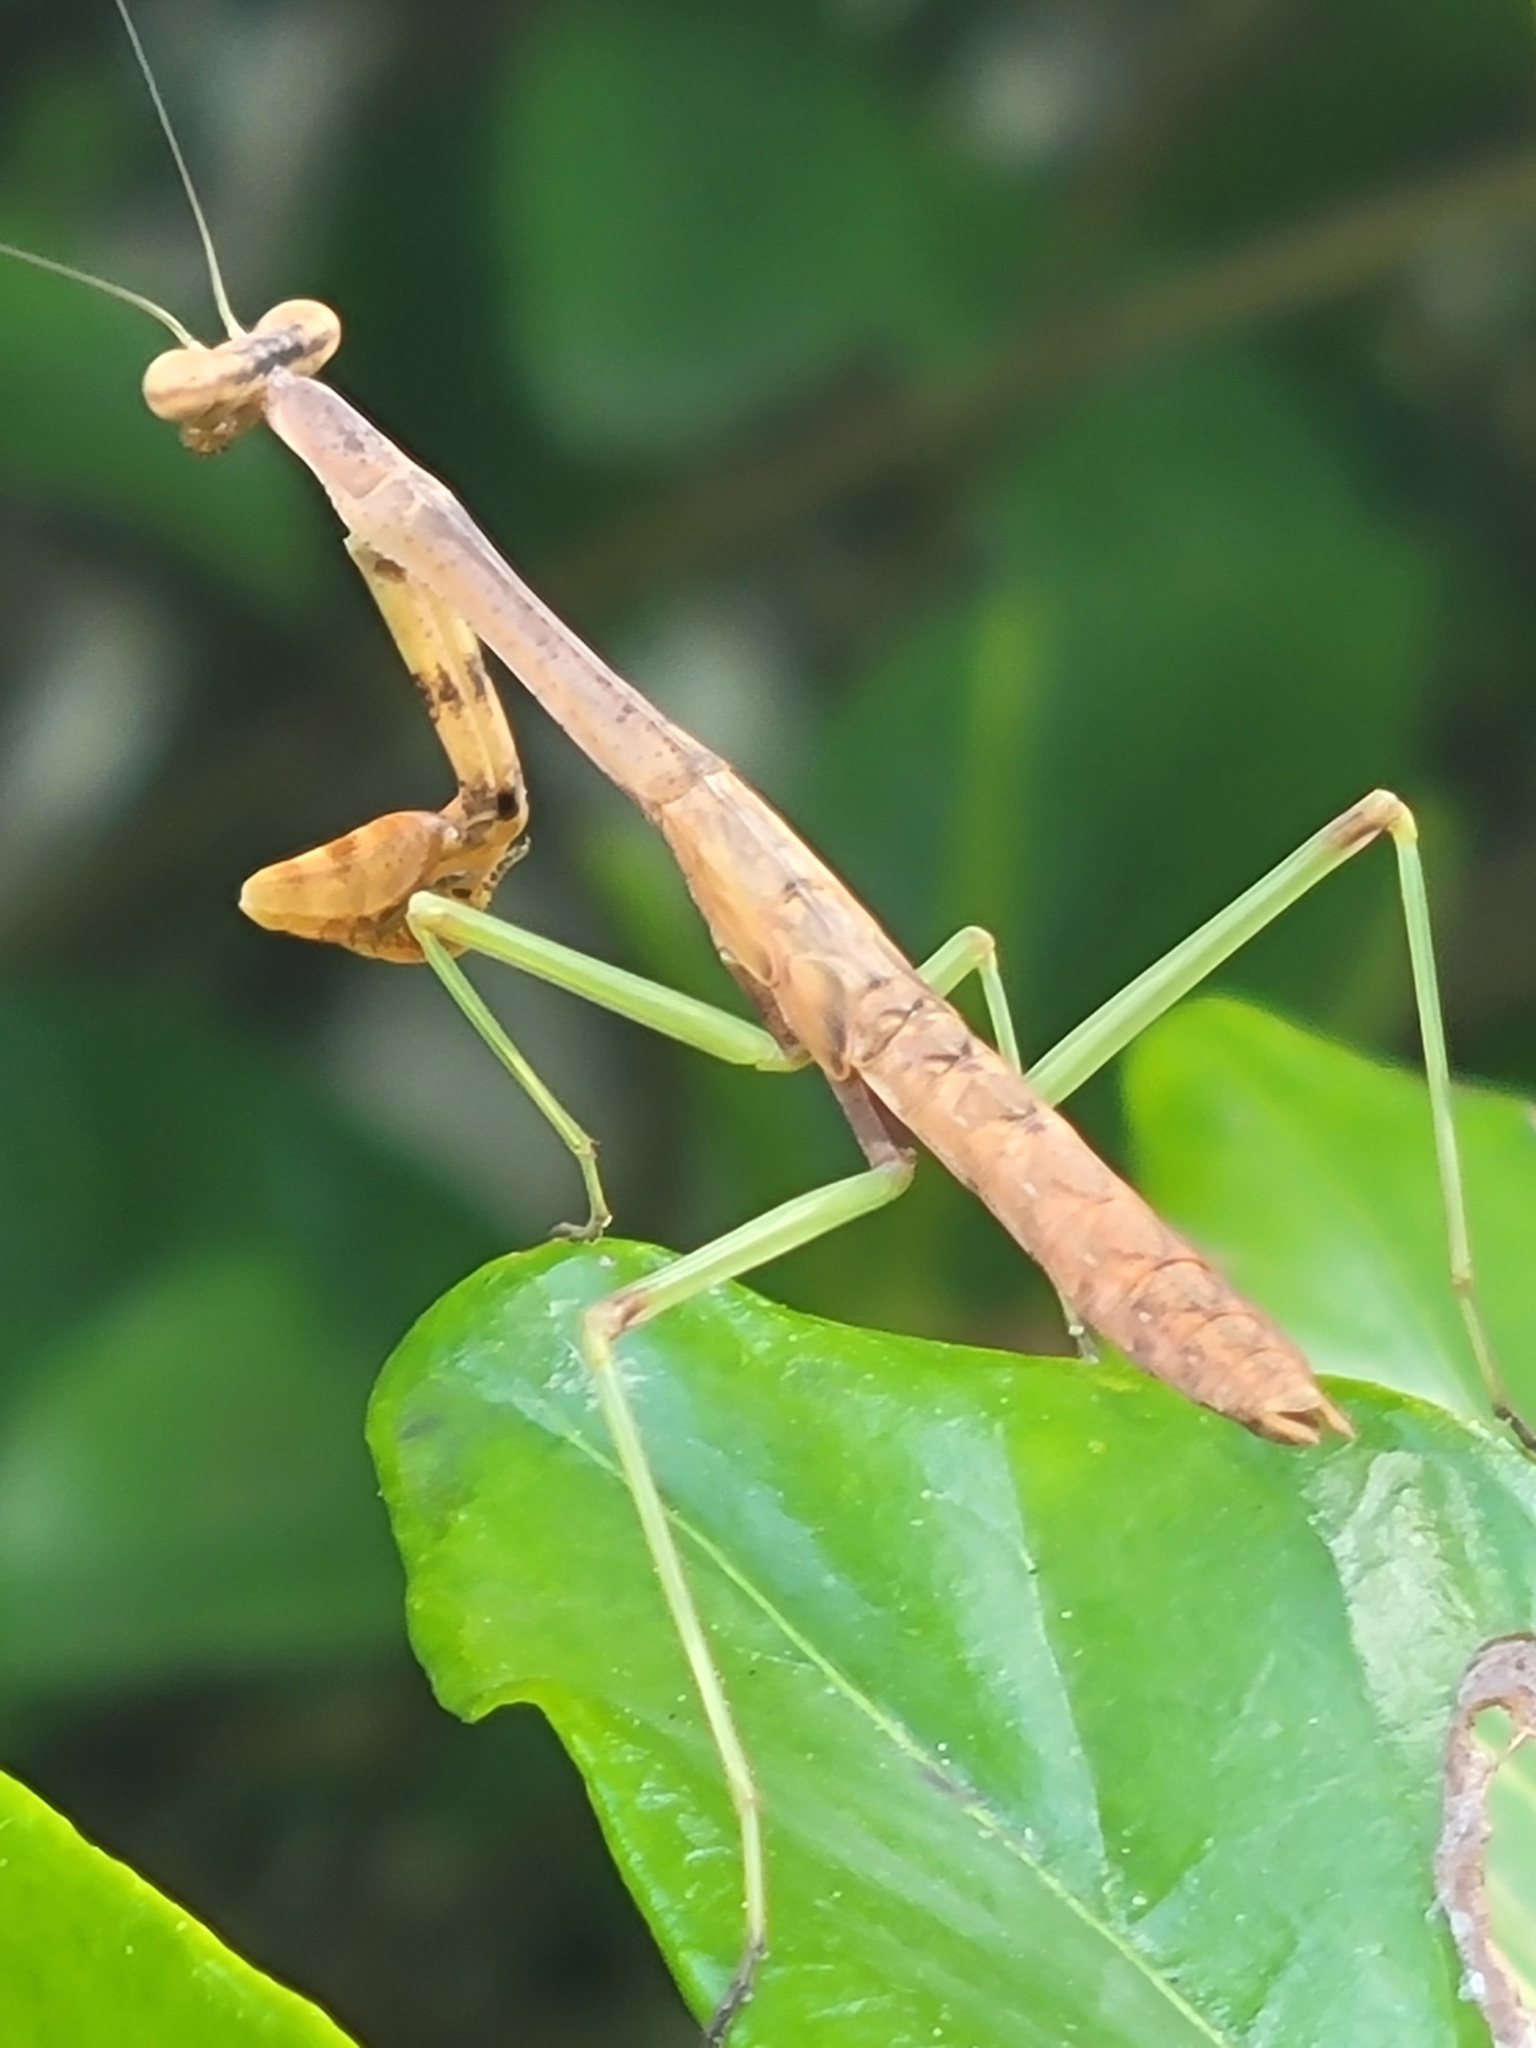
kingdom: Animalia
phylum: Arthropoda
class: Insecta
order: Mantodea
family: Mantidae
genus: Stagmomantis
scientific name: Stagmomantis carolina
